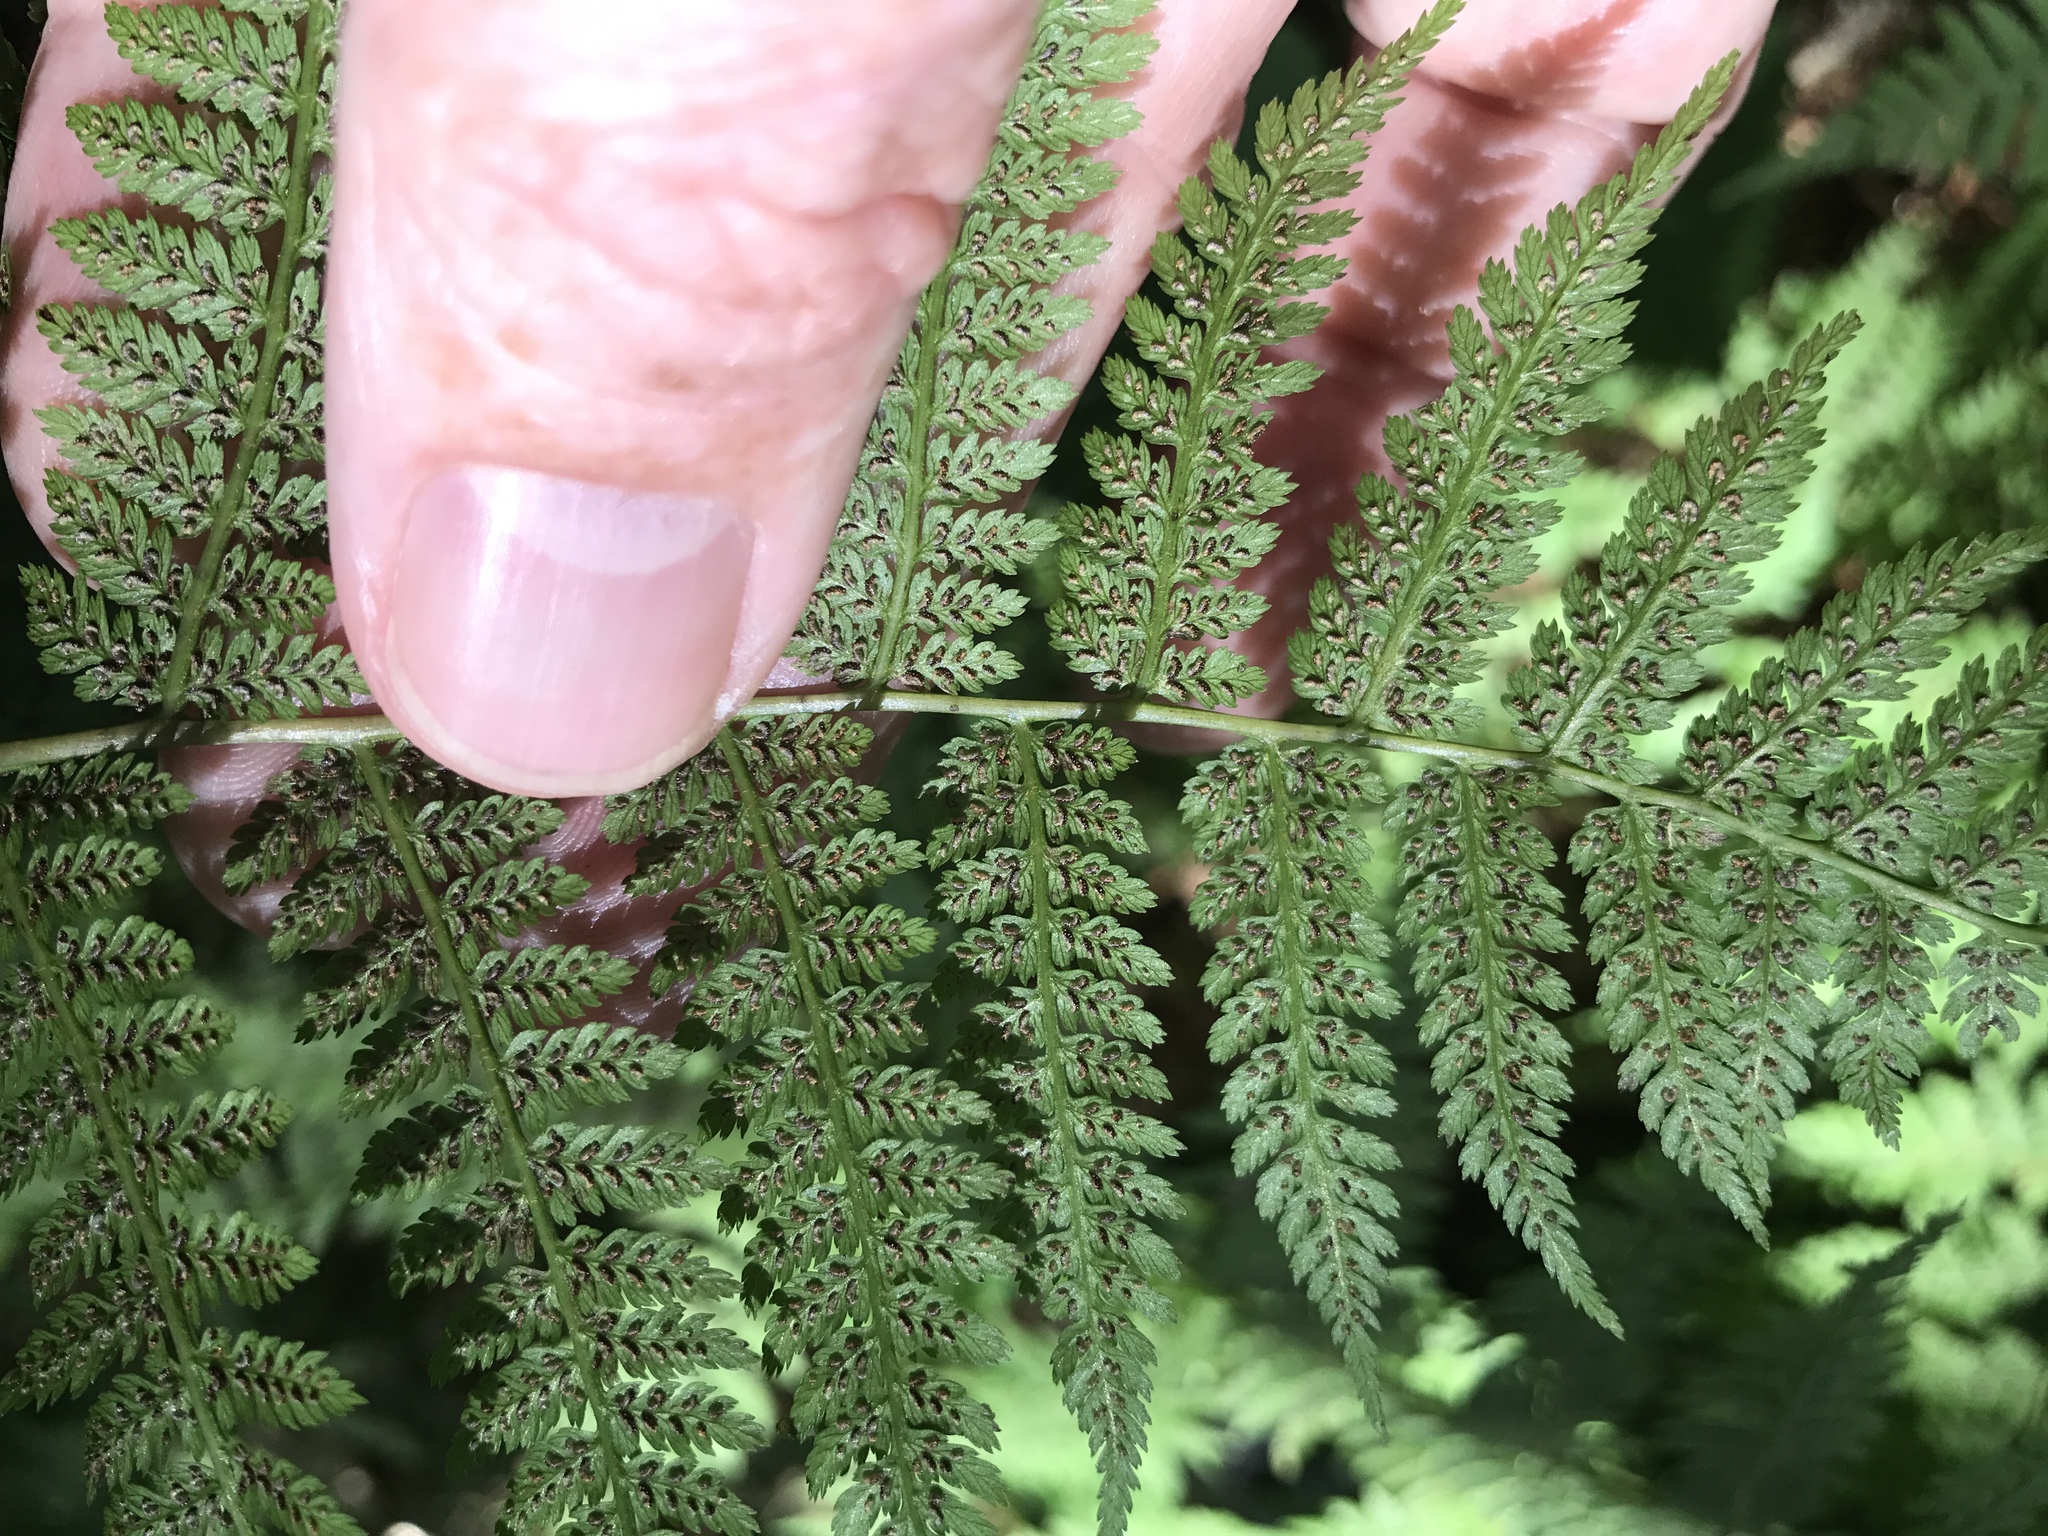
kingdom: Plantae
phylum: Tracheophyta
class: Polypodiopsida
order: Polypodiales
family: Athyriaceae
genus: Athyrium
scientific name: Athyrium asplenioides
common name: Southern lady fern
